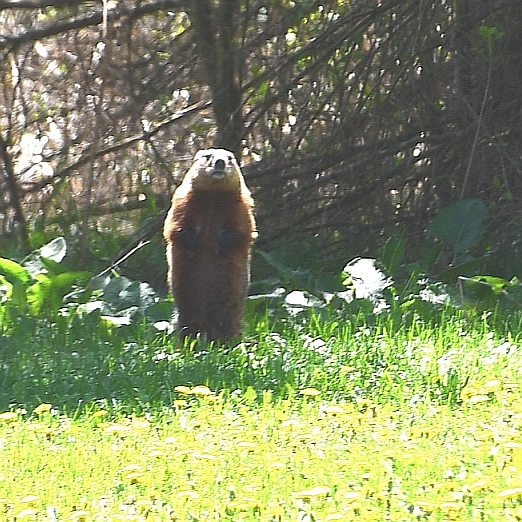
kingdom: Animalia
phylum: Chordata
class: Mammalia
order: Rodentia
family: Sciuridae
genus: Marmota
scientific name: Marmota monax
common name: Groundhog
